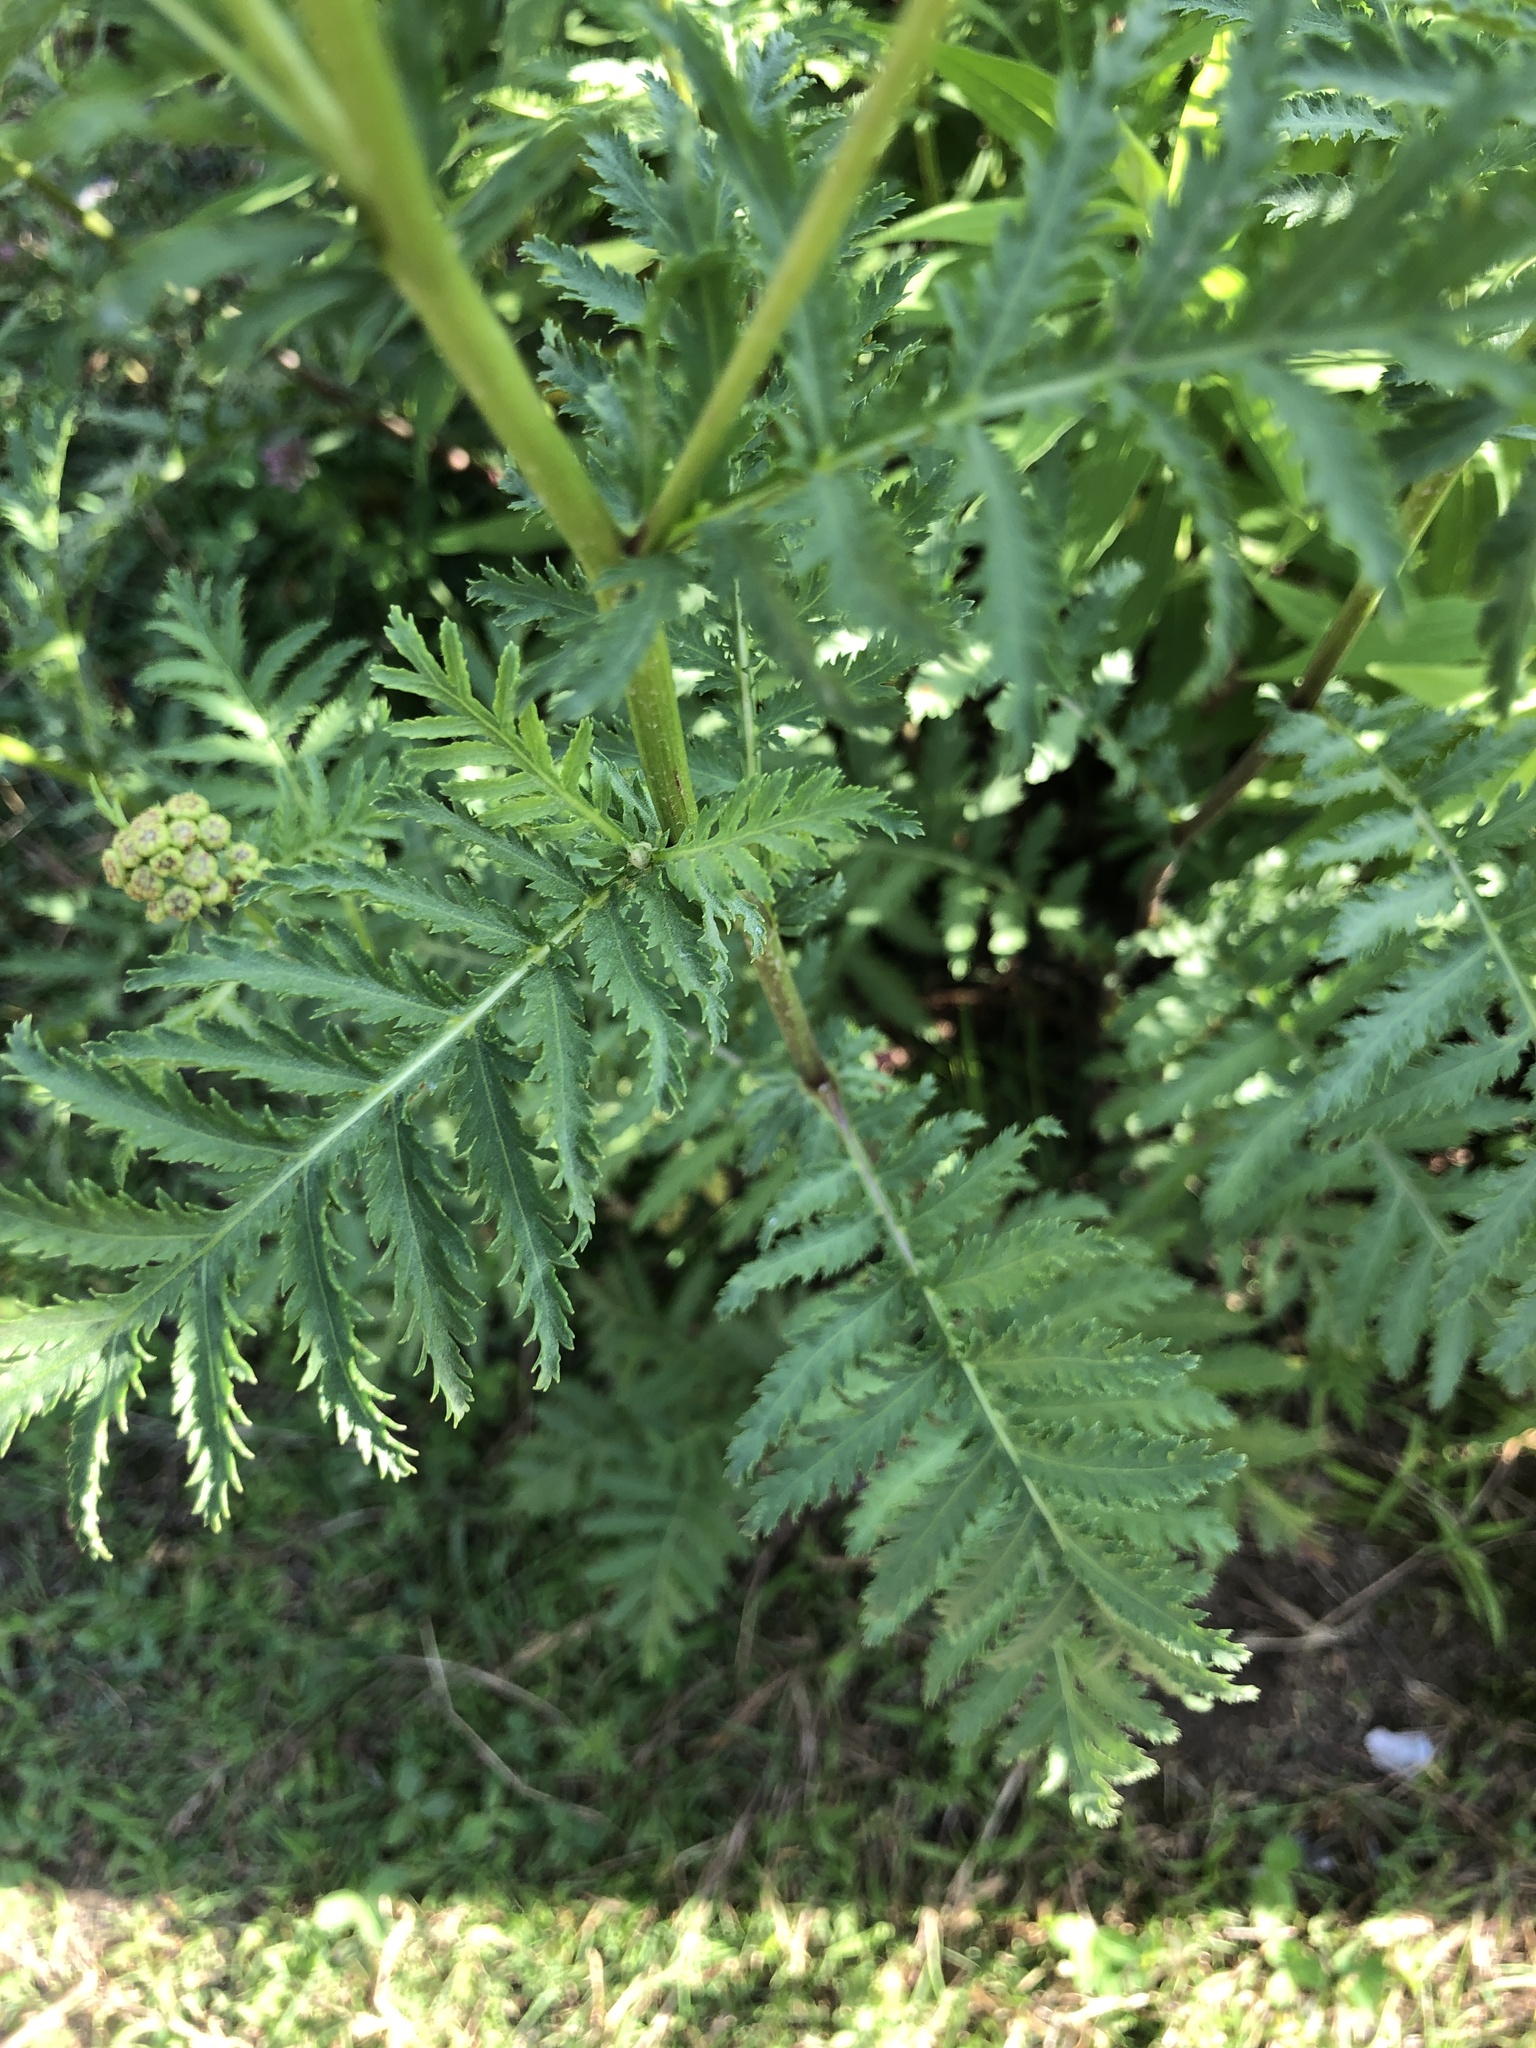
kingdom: Plantae
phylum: Tracheophyta
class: Magnoliopsida
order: Asterales
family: Asteraceae
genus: Tanacetum
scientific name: Tanacetum vulgare
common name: Common tansy
